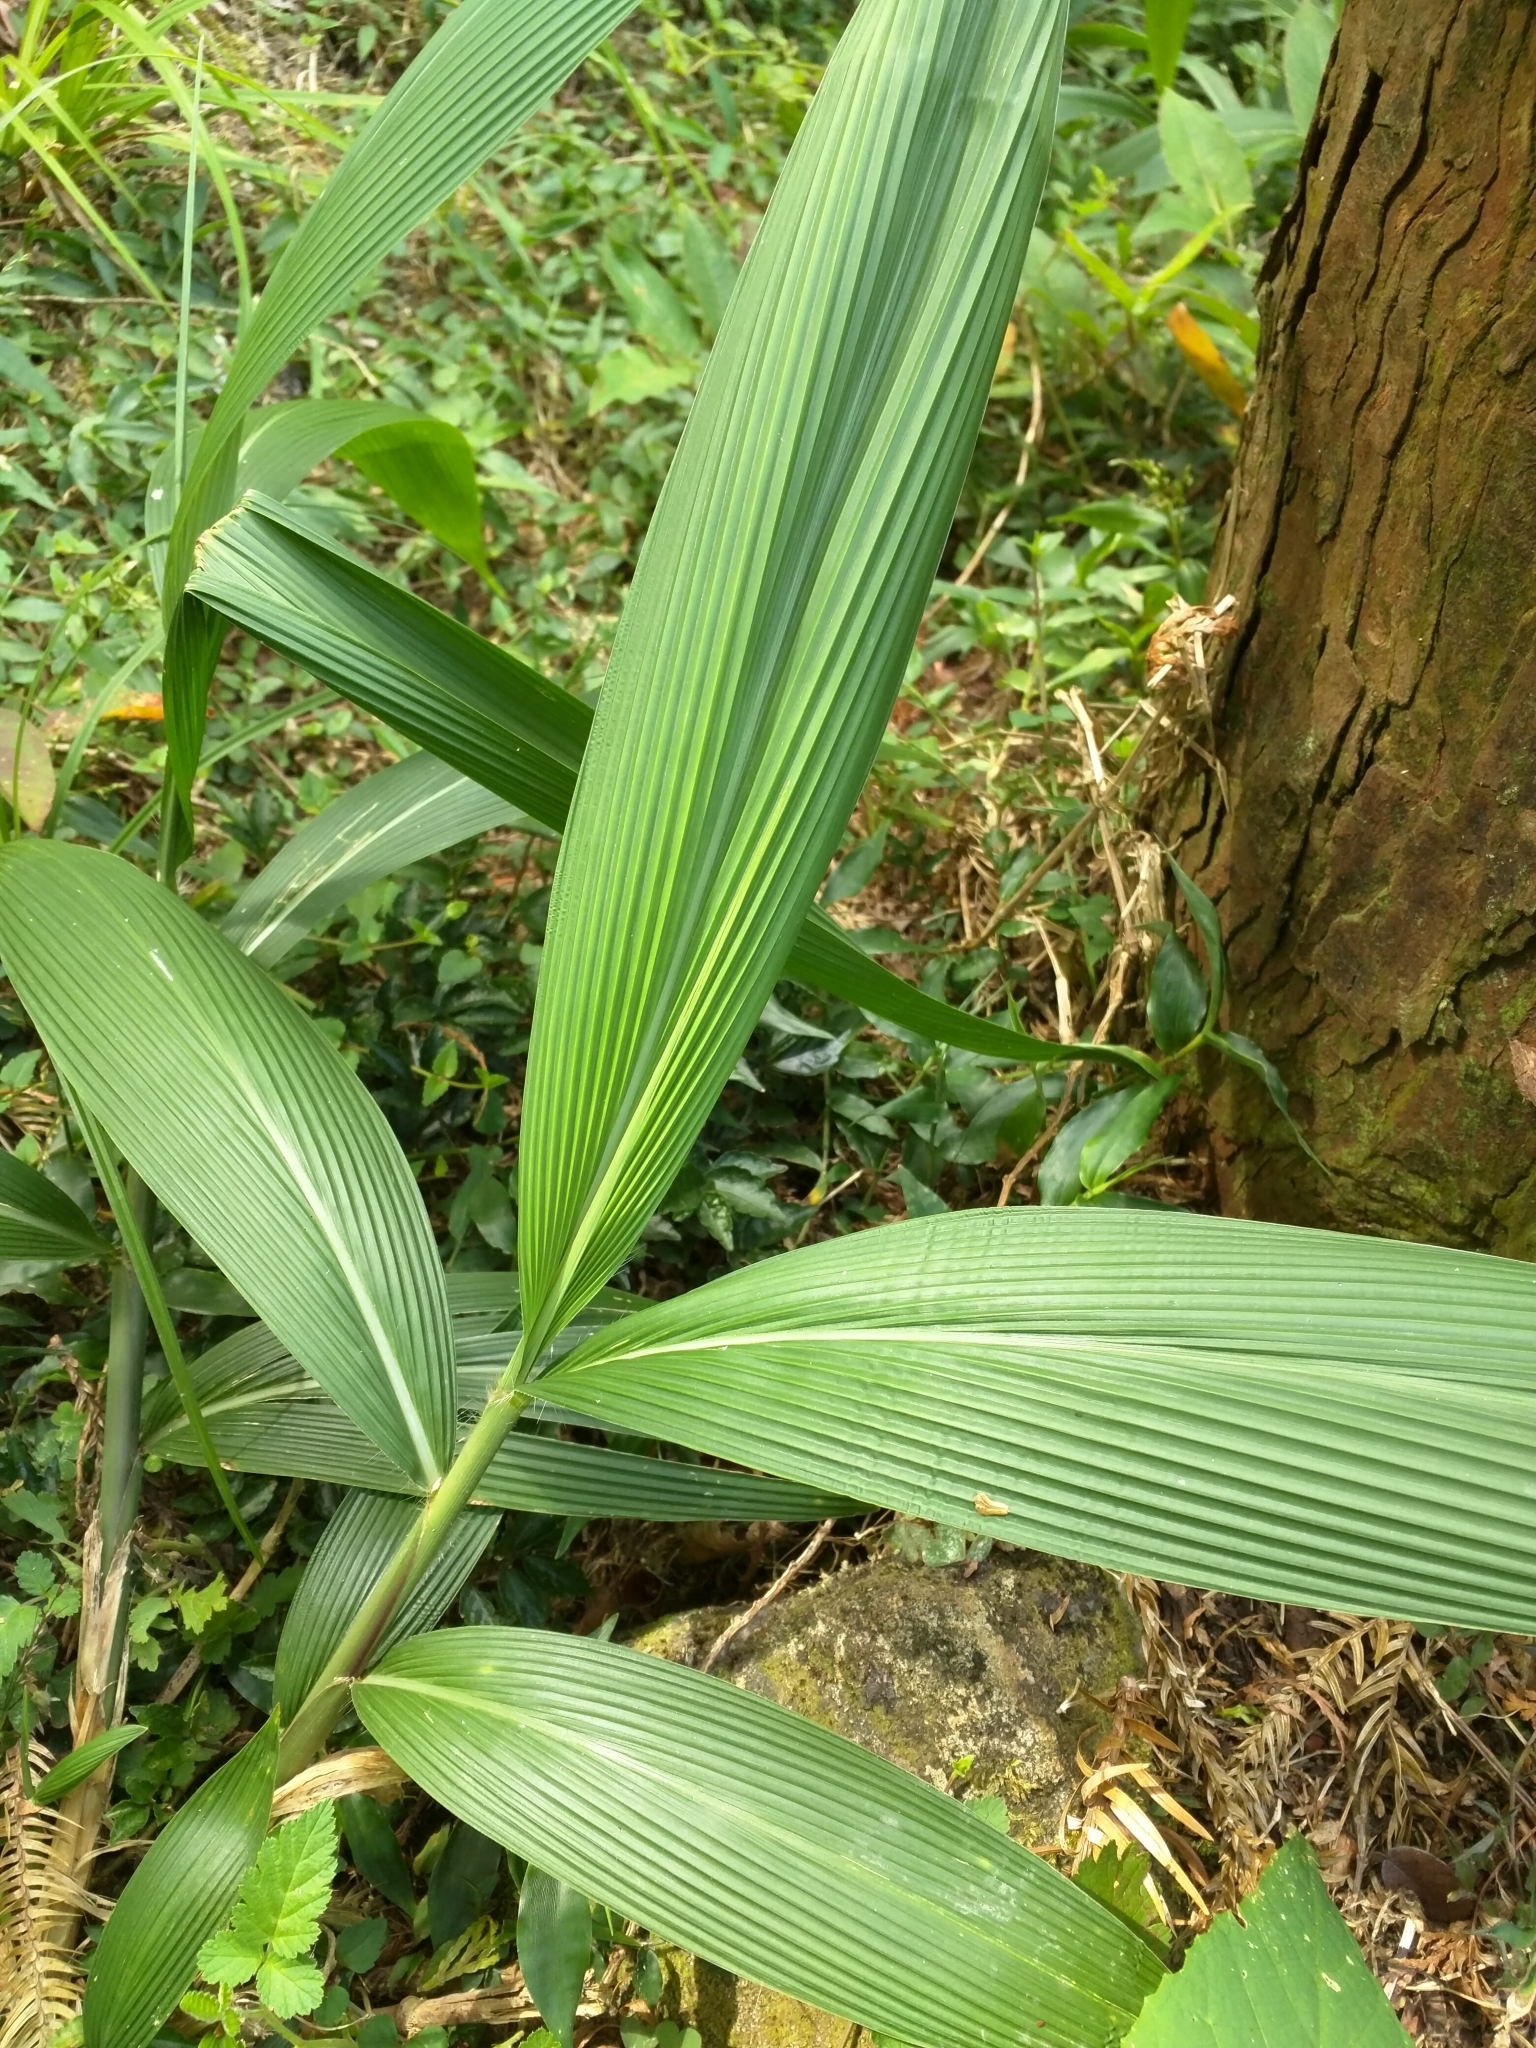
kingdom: Plantae
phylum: Tracheophyta
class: Liliopsida
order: Poales
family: Poaceae
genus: Setaria
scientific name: Setaria palmifolia
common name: Broadleaved bristlegrass
